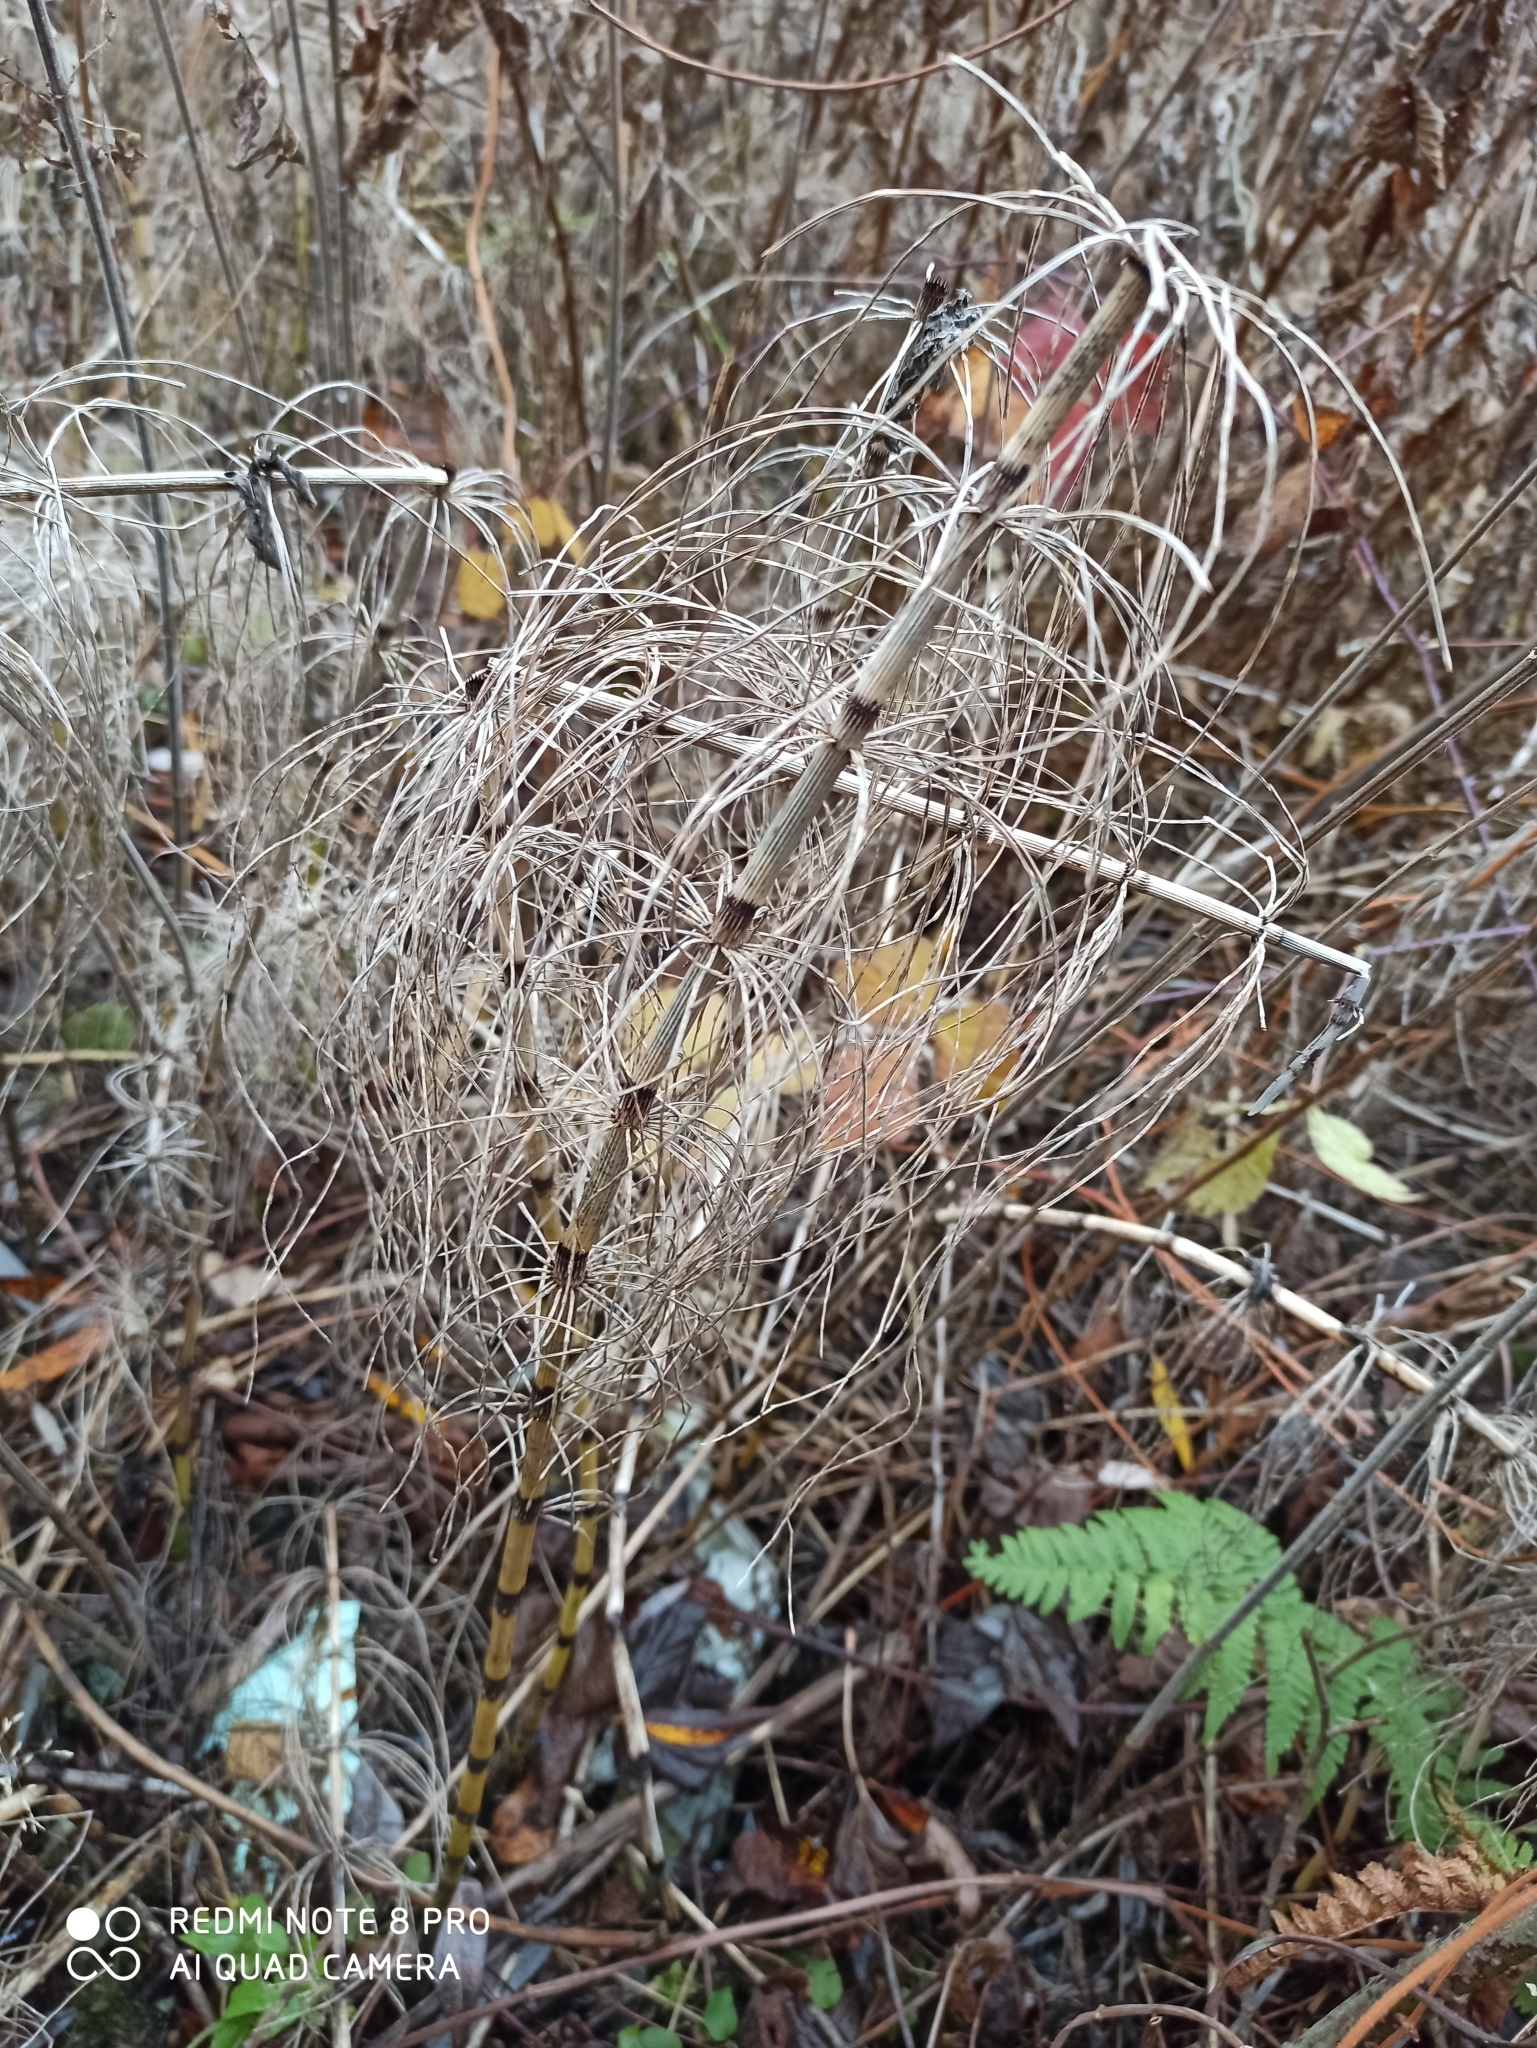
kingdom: Plantae
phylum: Tracheophyta
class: Polypodiopsida
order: Equisetales
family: Equisetaceae
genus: Equisetum
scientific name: Equisetum fluviatile
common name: Water horsetail
